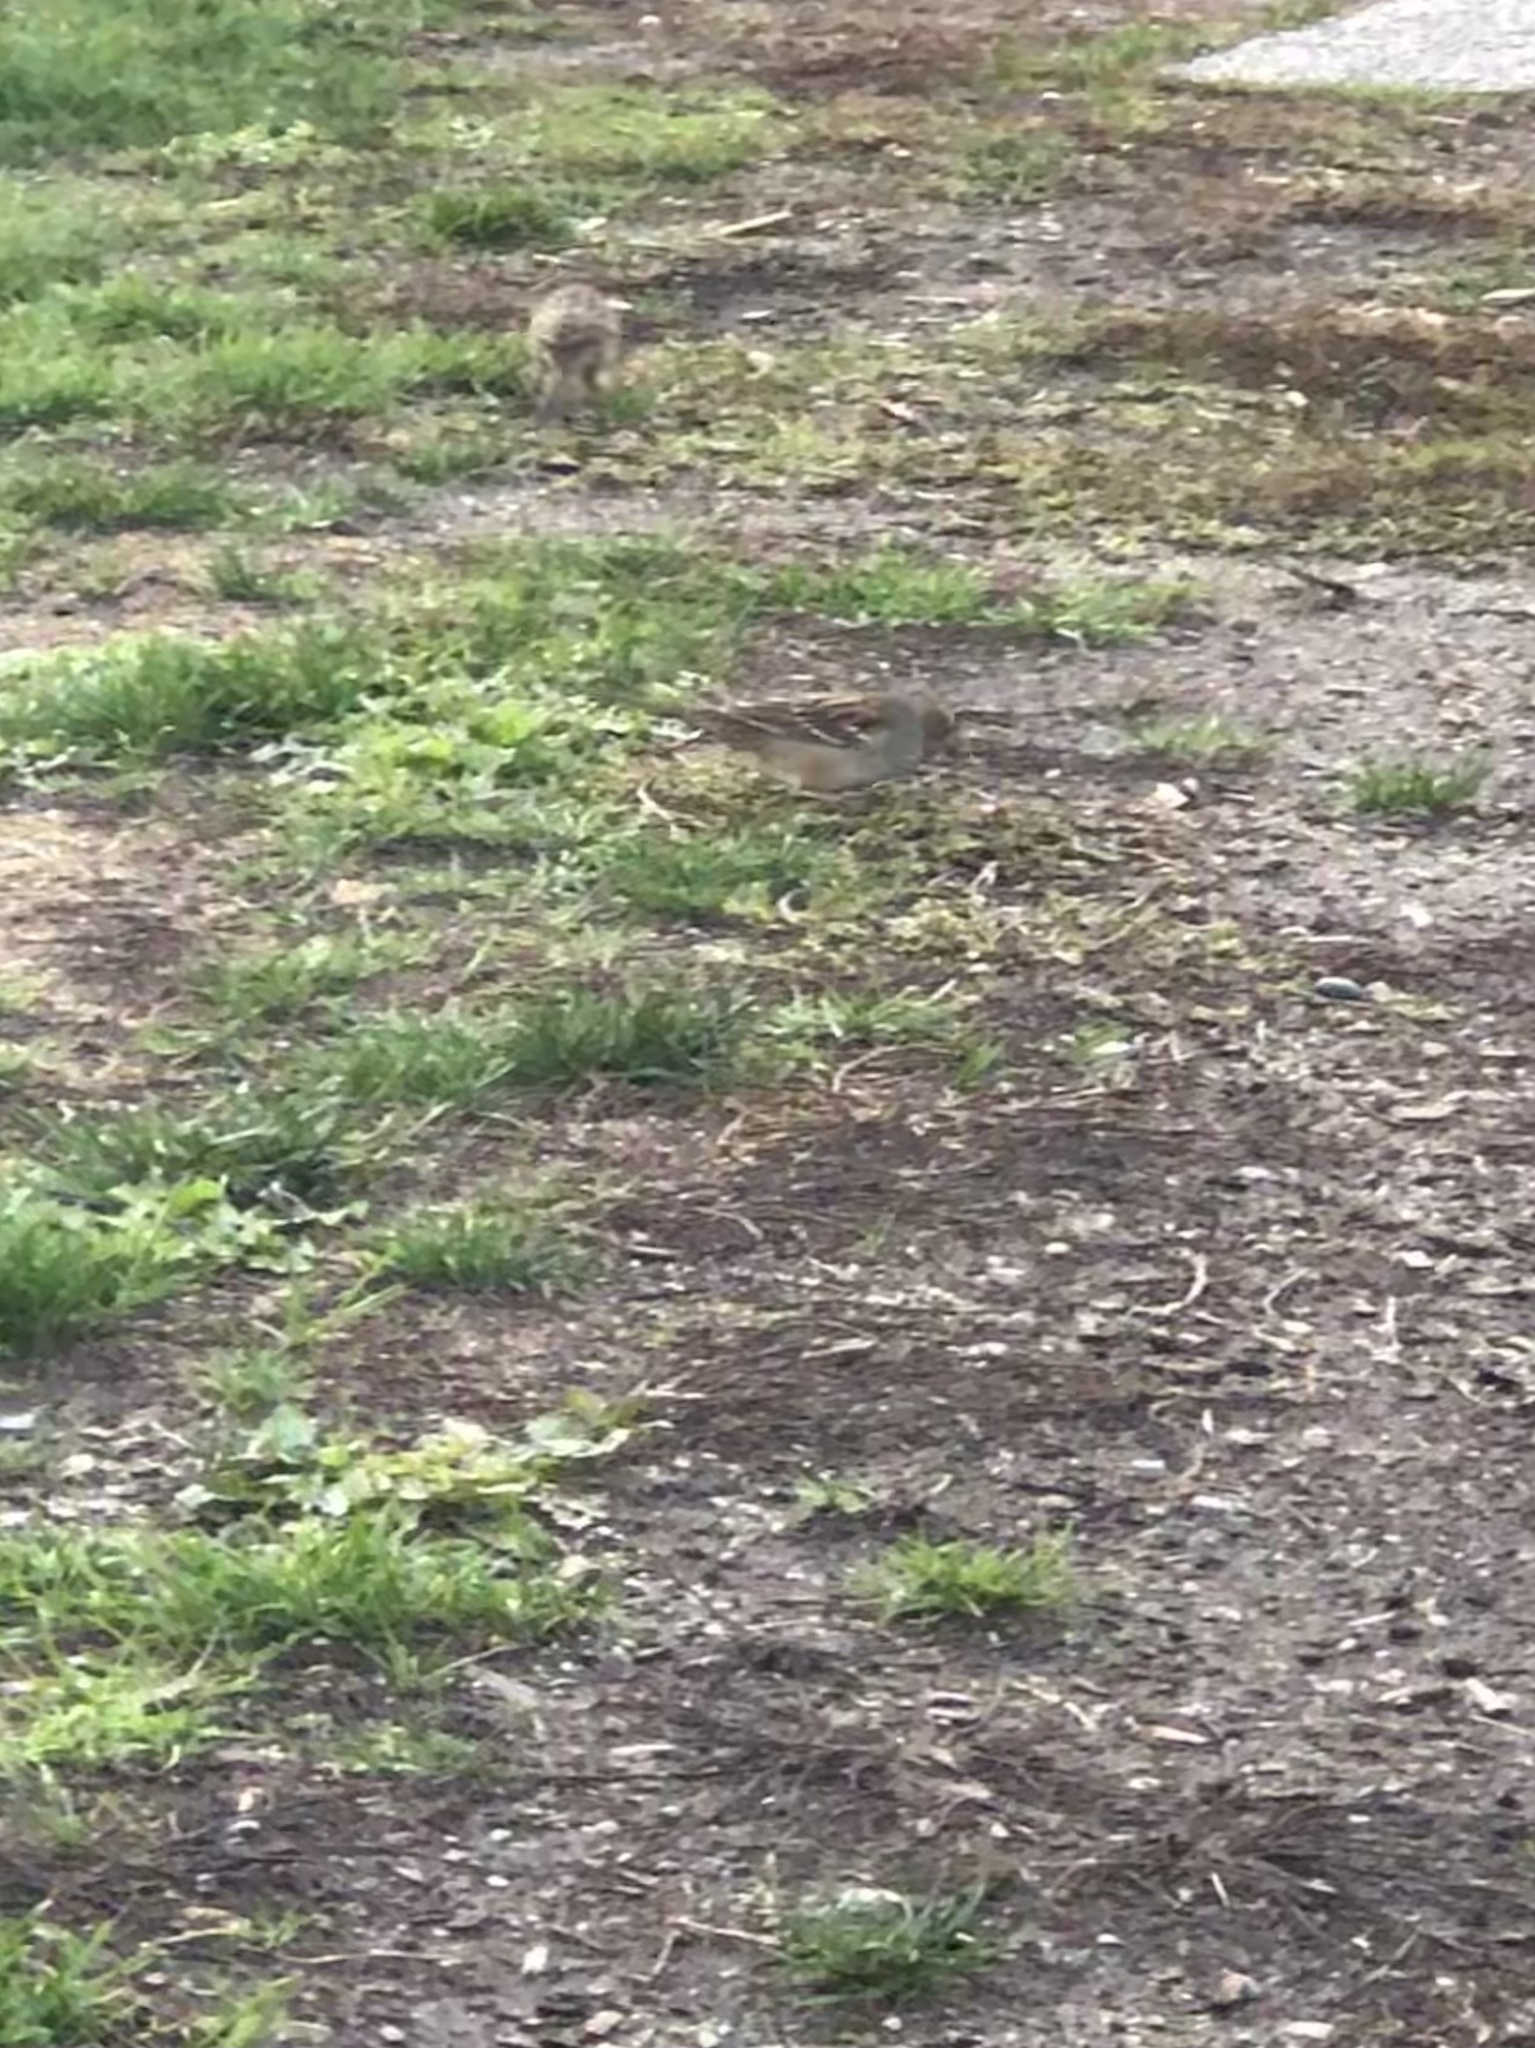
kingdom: Animalia
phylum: Chordata
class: Aves
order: Passeriformes
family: Passerellidae
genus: Zonotrichia
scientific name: Zonotrichia leucophrys
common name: White-crowned sparrow
